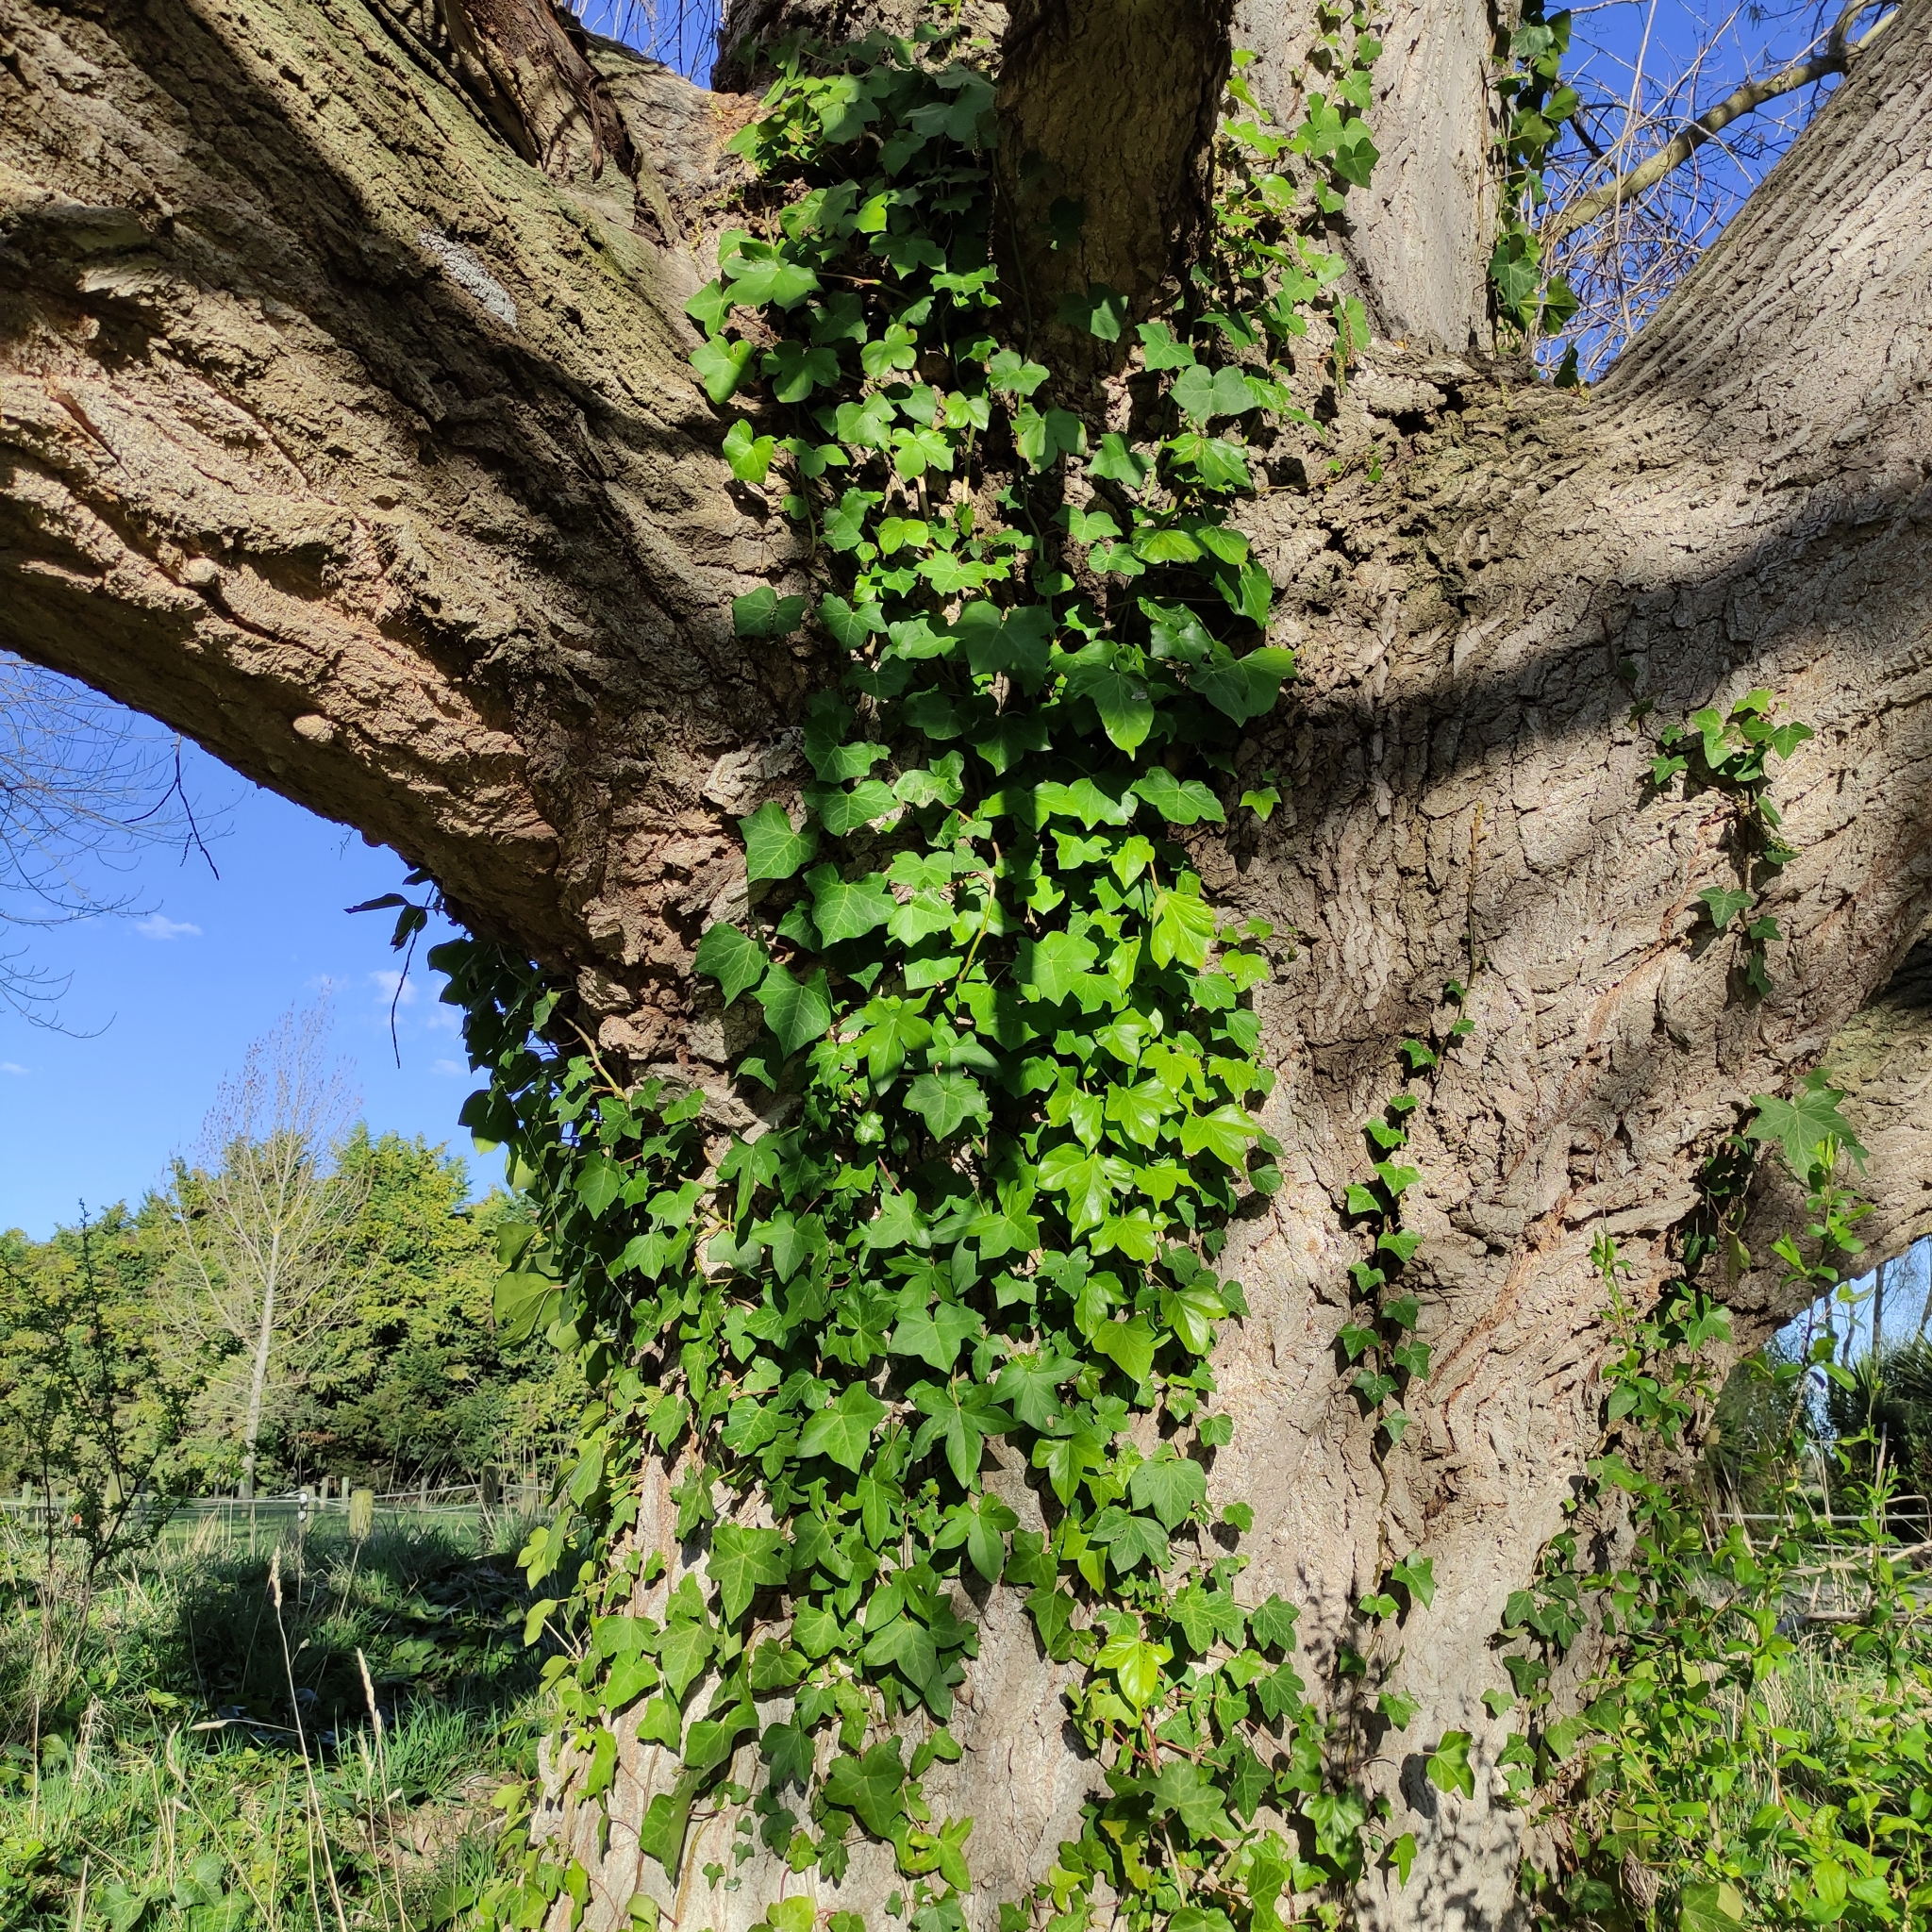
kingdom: Plantae
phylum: Tracheophyta
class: Magnoliopsida
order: Apiales
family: Araliaceae
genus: Hedera
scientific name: Hedera helix
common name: Ivy
